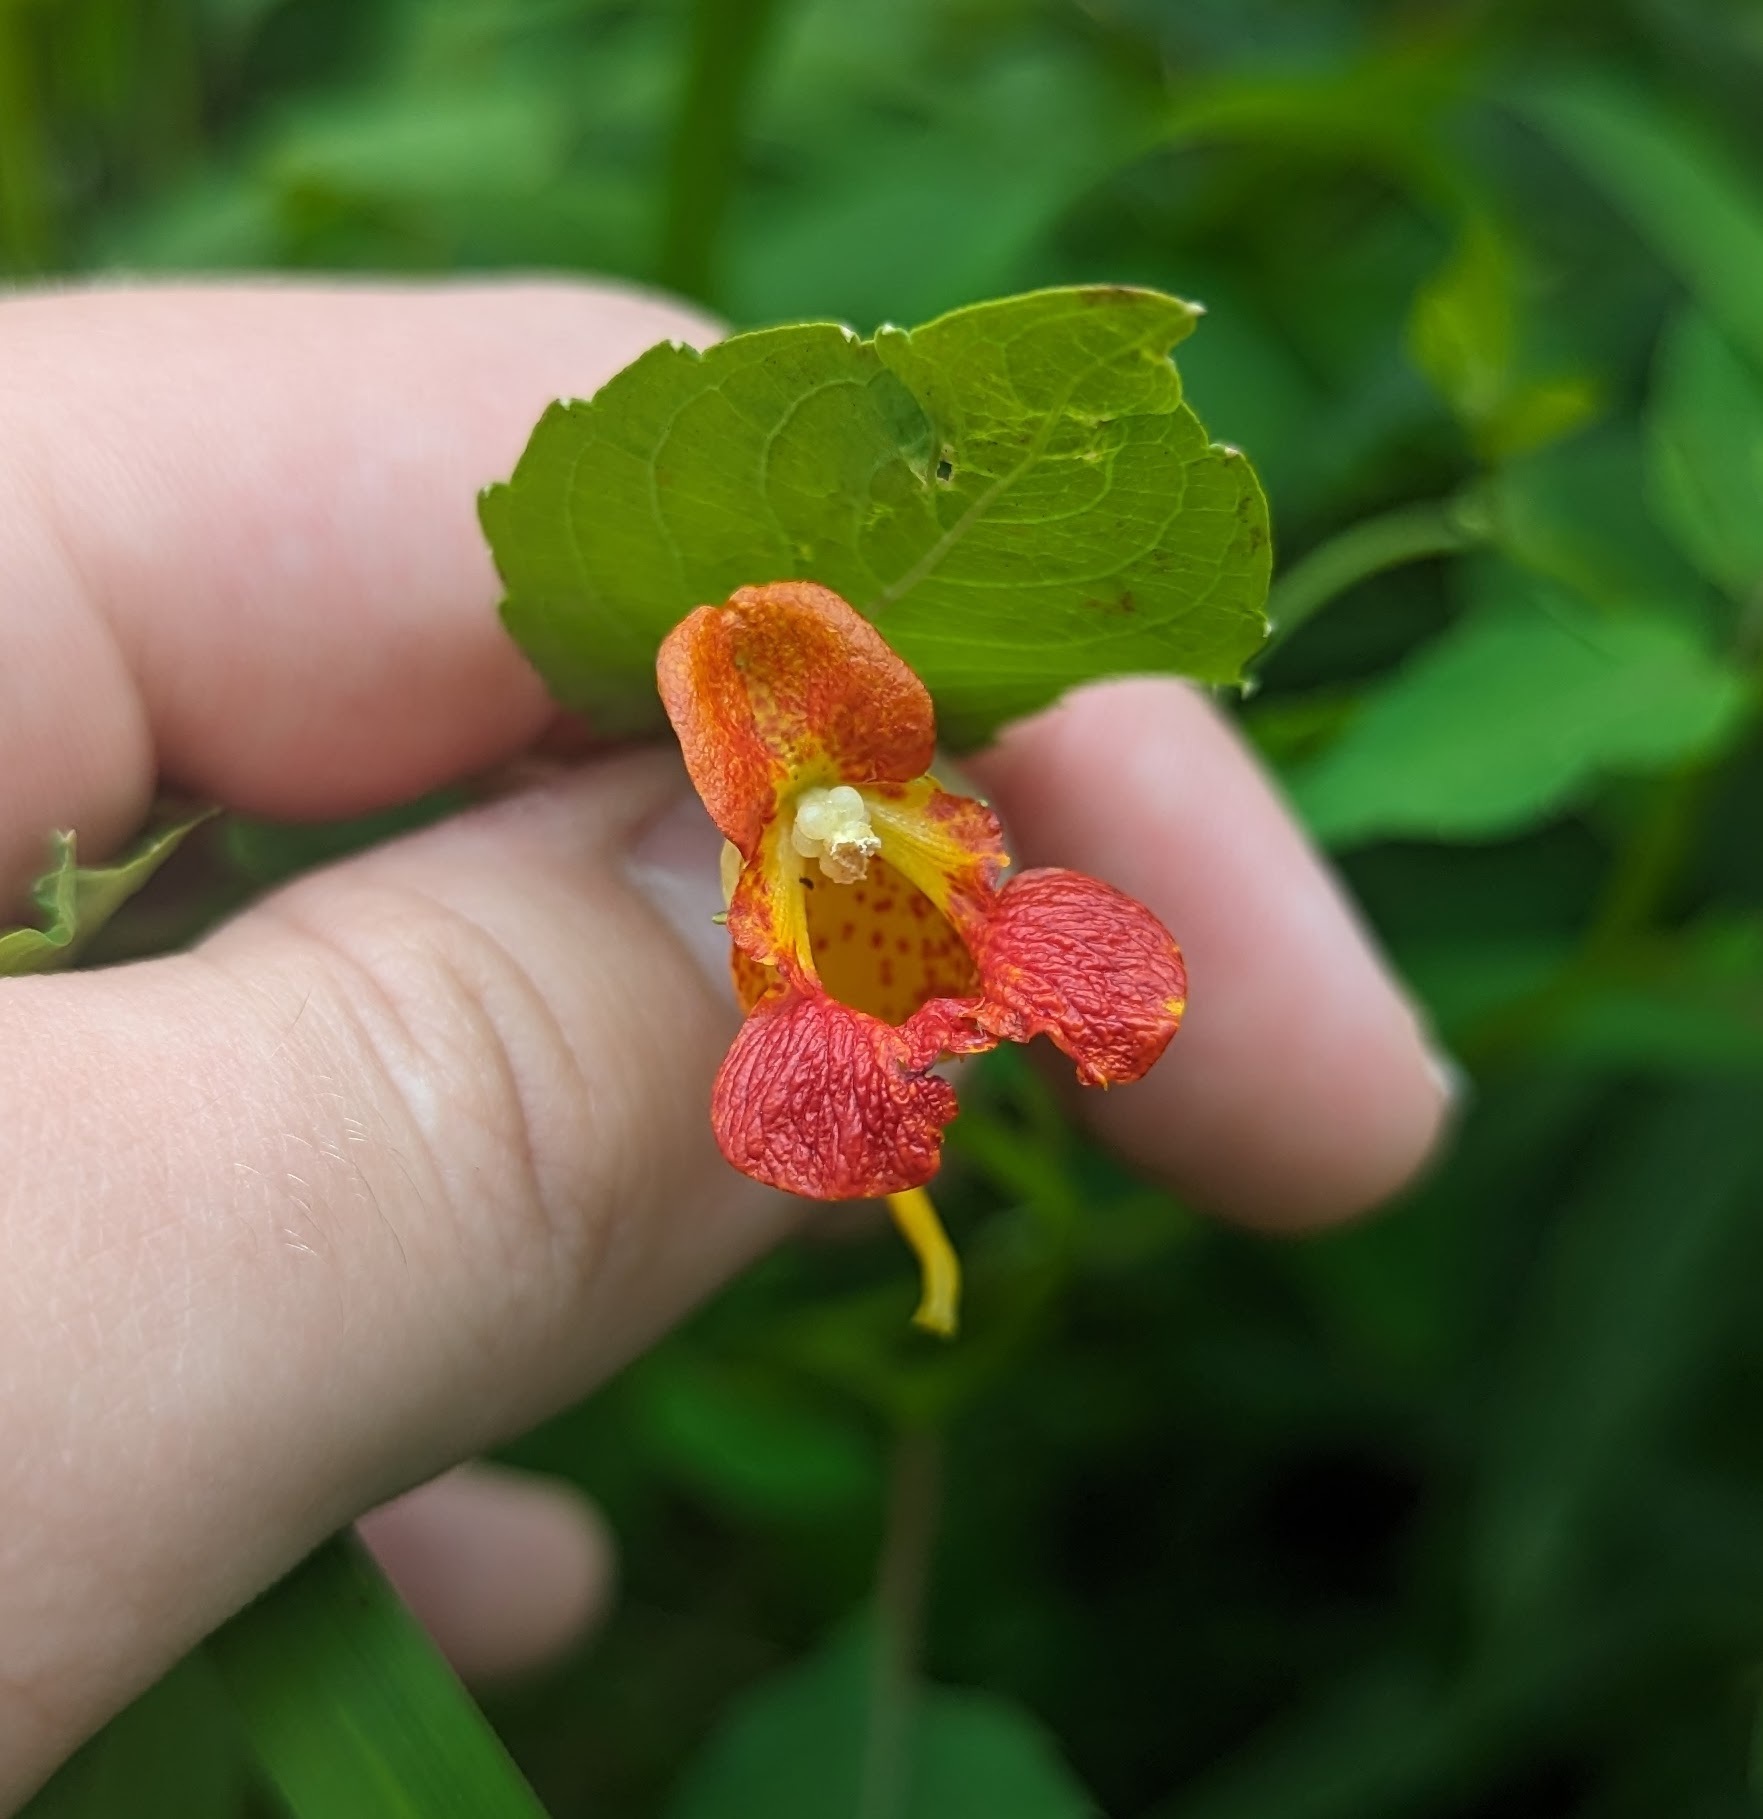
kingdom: Plantae
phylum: Tracheophyta
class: Magnoliopsida
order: Ericales
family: Balsaminaceae
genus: Impatiens
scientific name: Impatiens capensis
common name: Orange balsam
